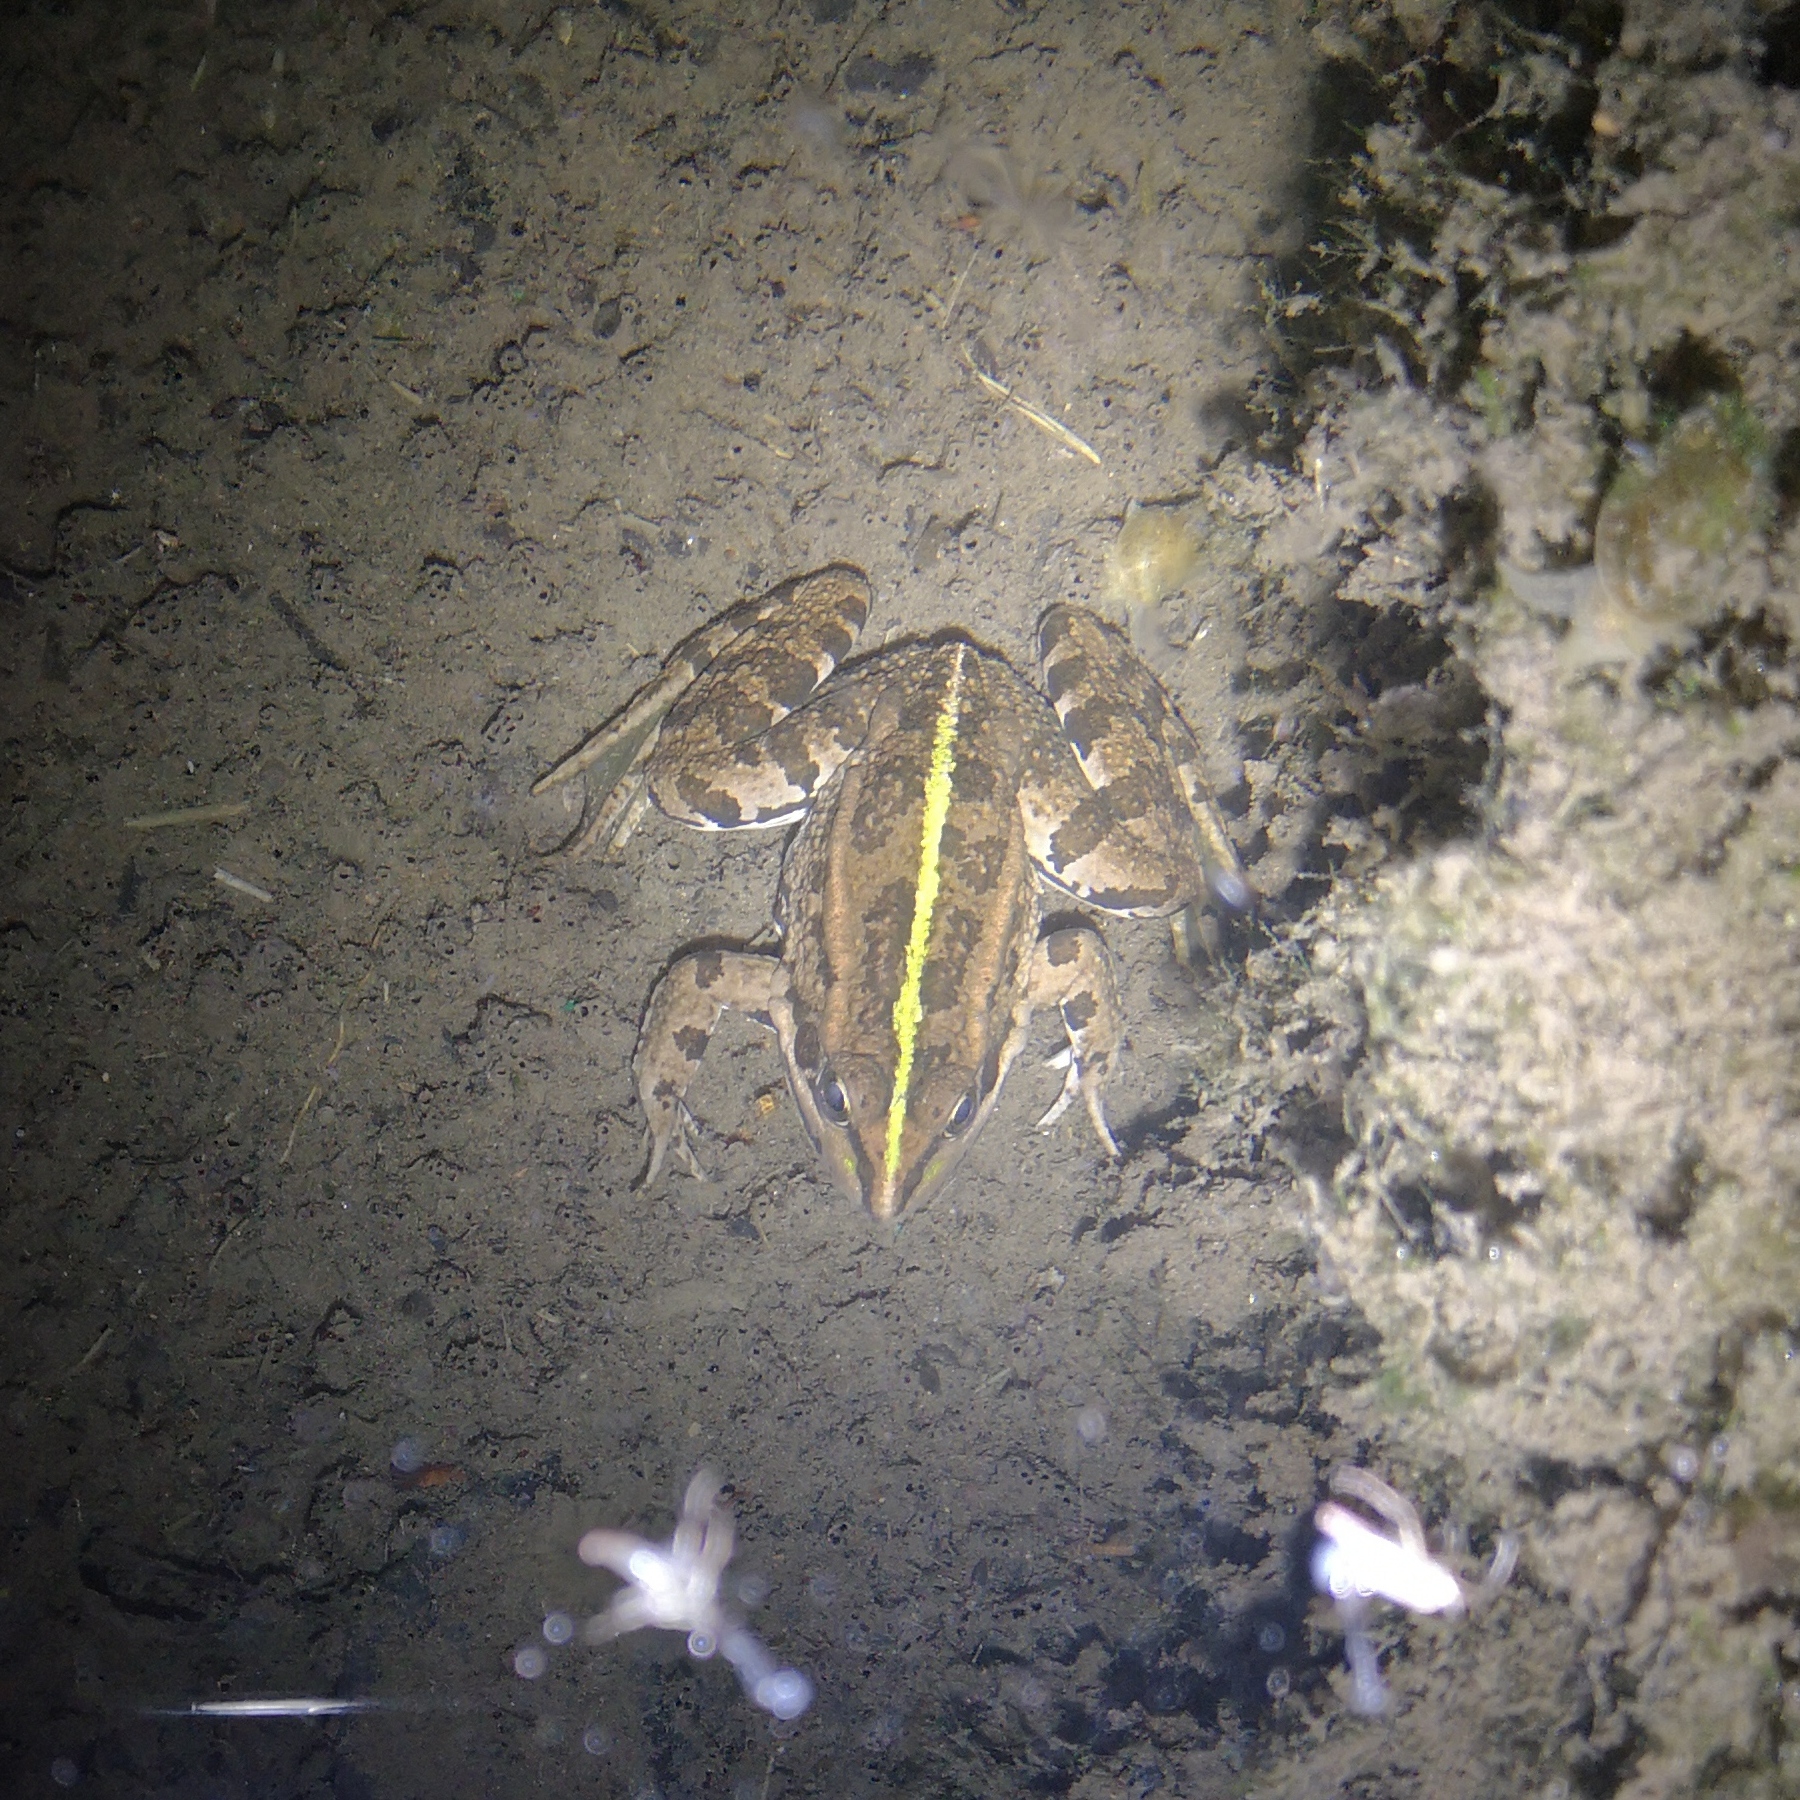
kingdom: Animalia
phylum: Chordata
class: Amphibia
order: Anura
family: Ranidae
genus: Pelophylax
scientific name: Pelophylax perezi
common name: Perez's frog
